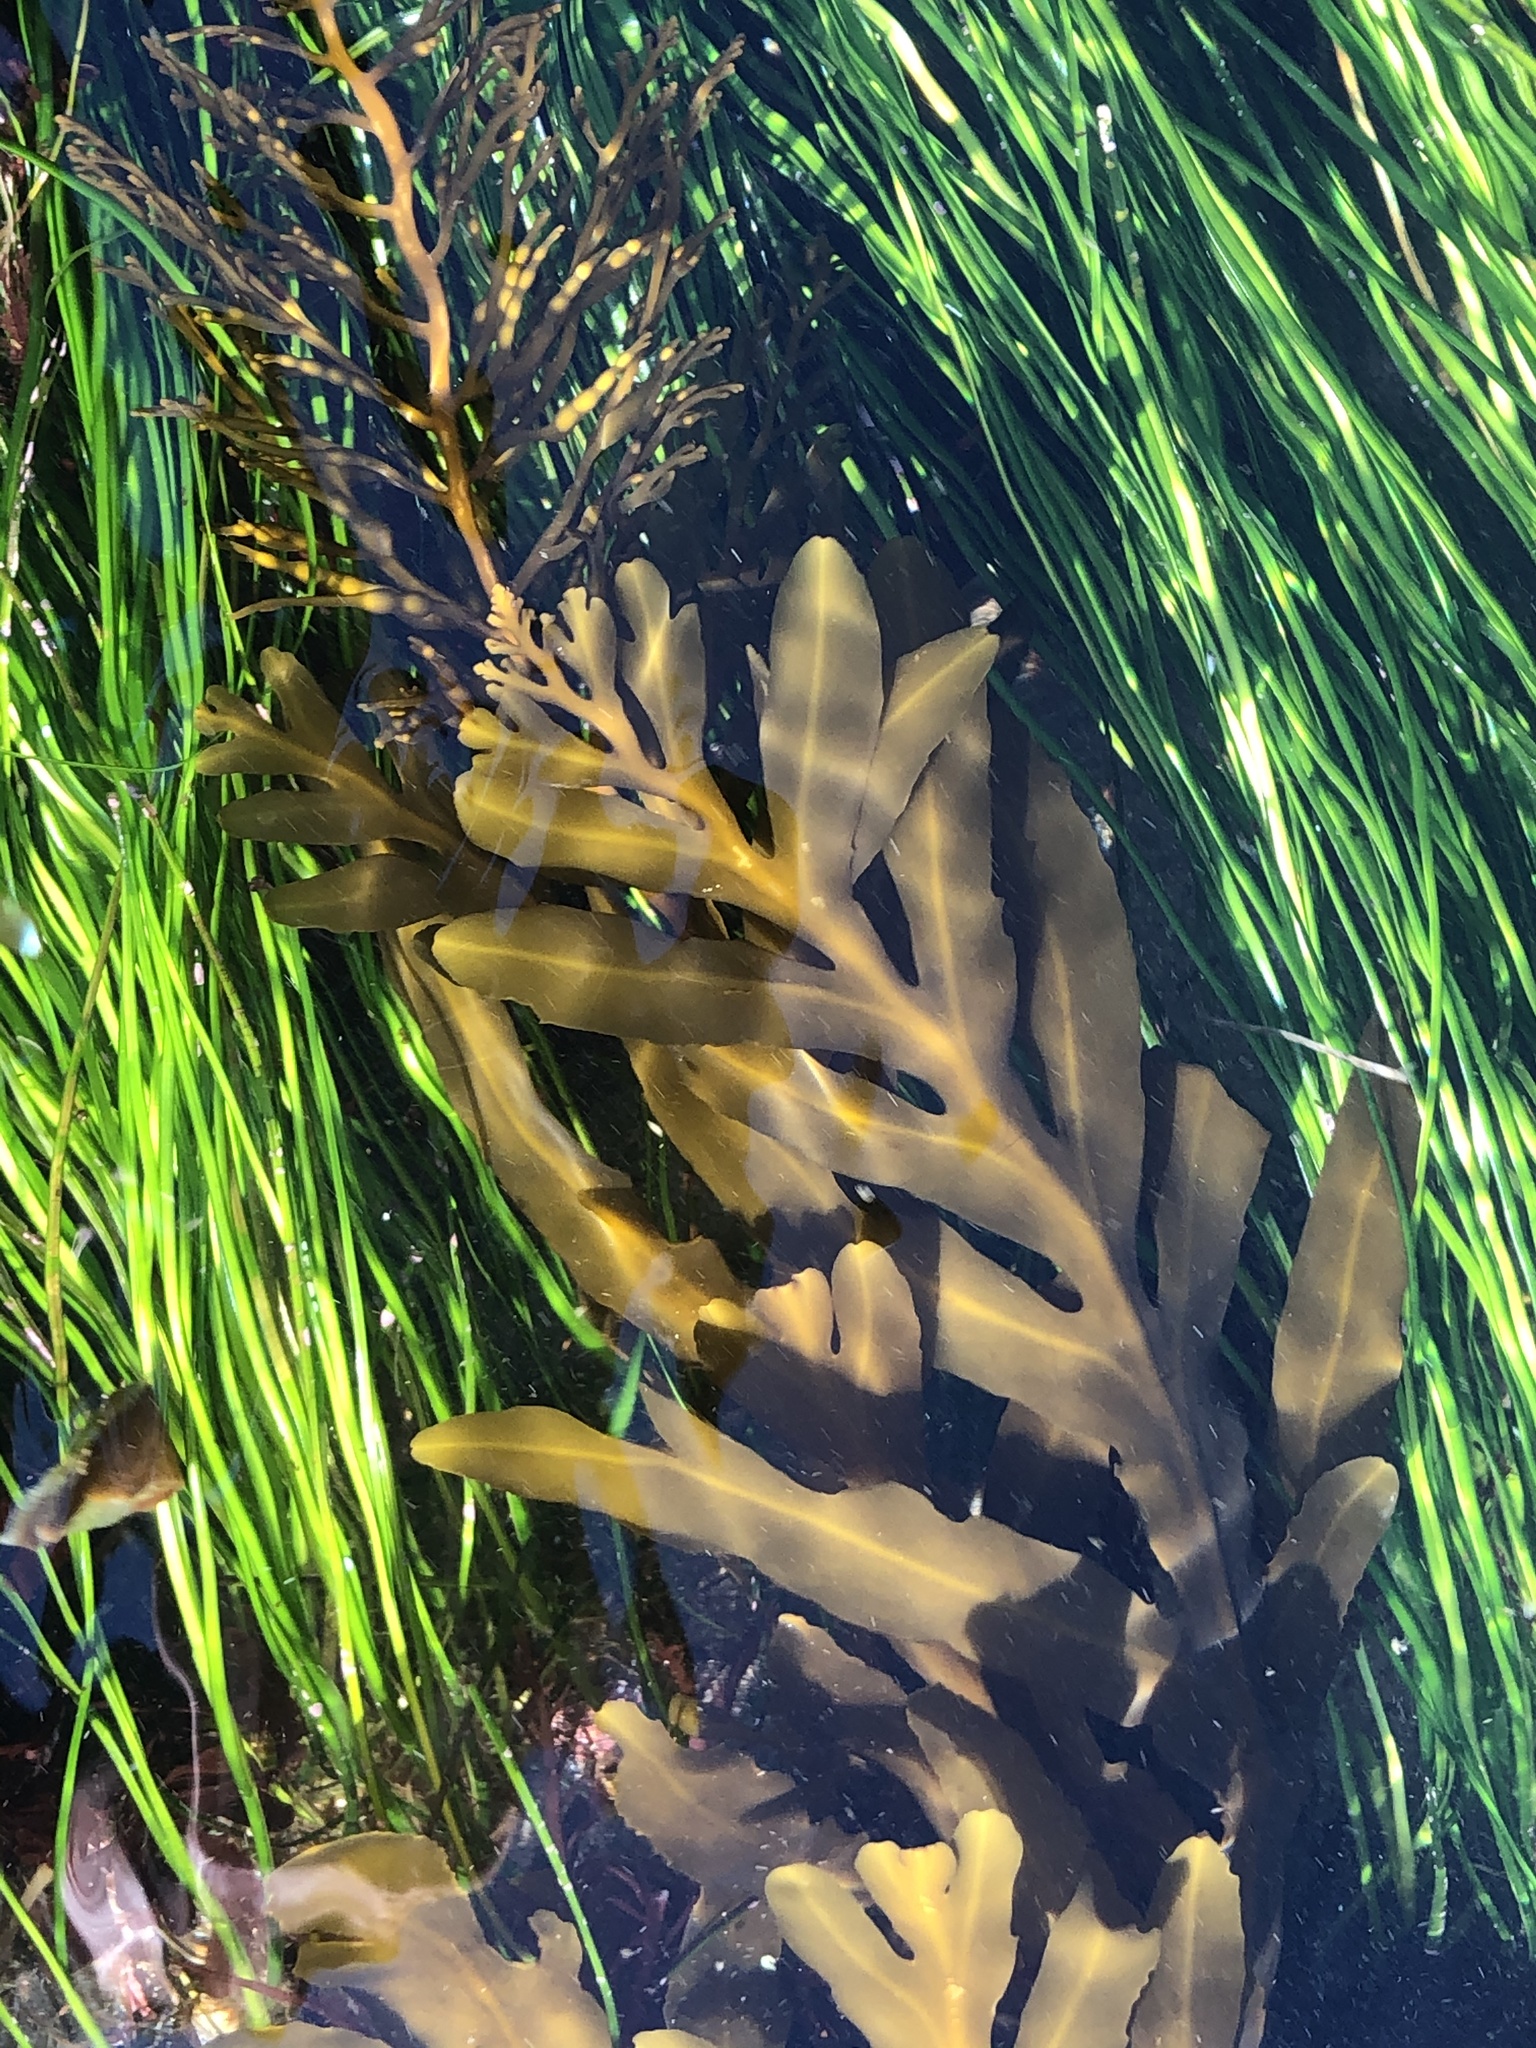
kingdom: Chromista
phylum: Ochrophyta
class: Phaeophyceae
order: Fucales
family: Sargassaceae
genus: Stephanocystis
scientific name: Stephanocystis
